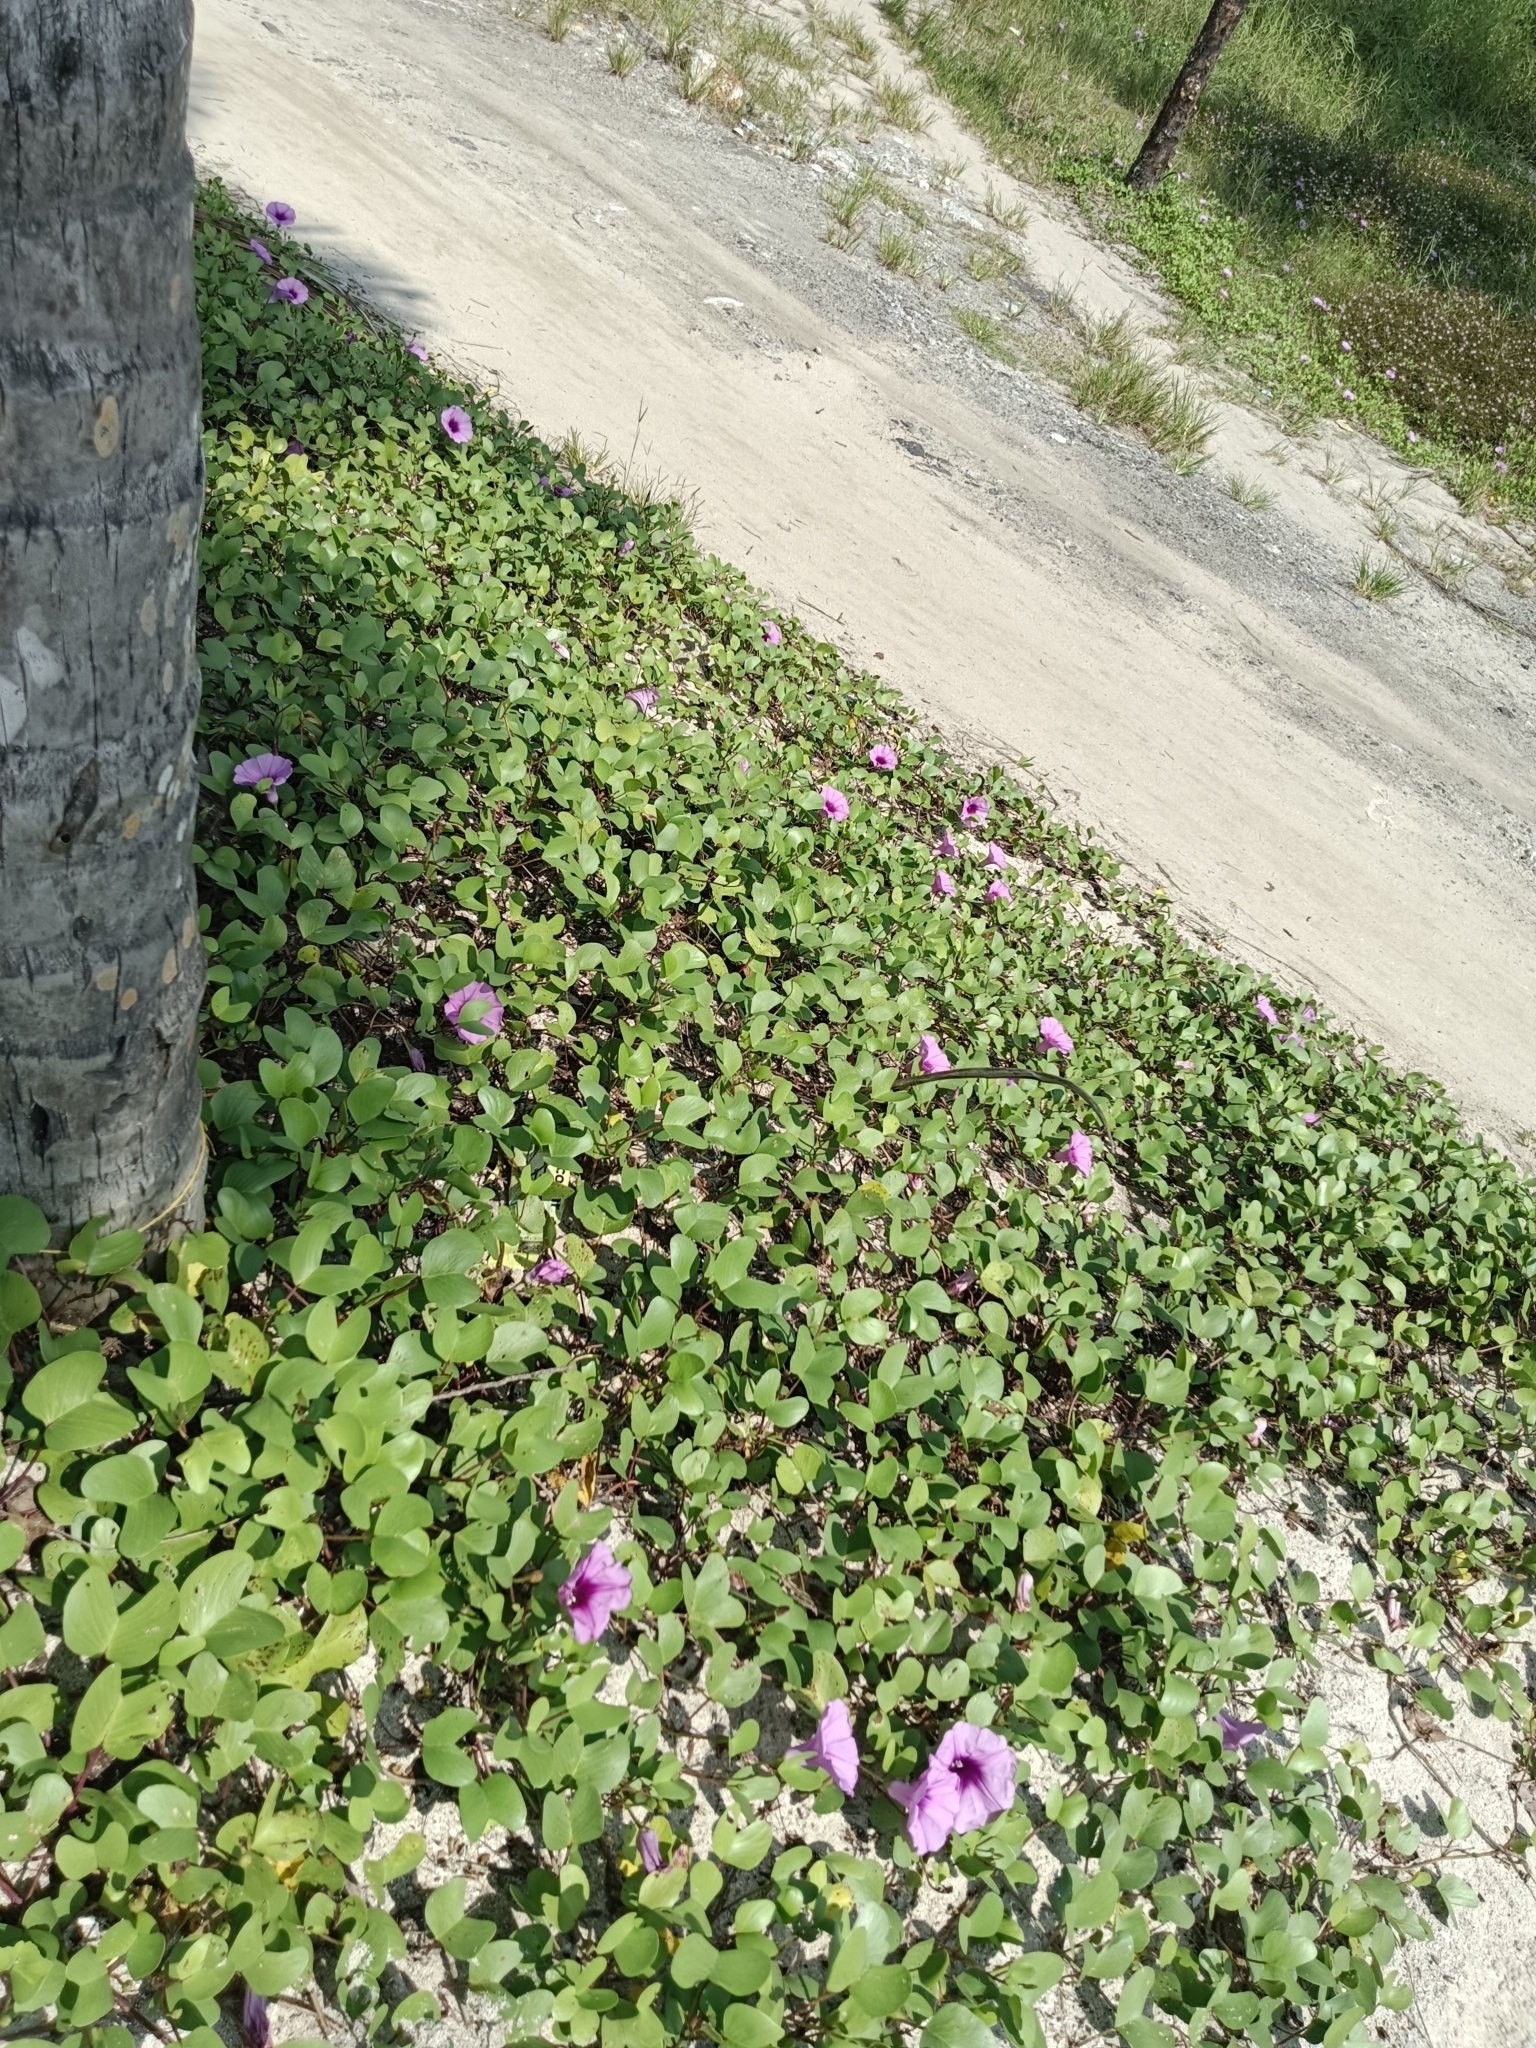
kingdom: Plantae
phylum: Tracheophyta
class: Magnoliopsida
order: Solanales
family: Convolvulaceae
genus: Ipomoea
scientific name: Ipomoea pes-caprae
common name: Beach morning glory
